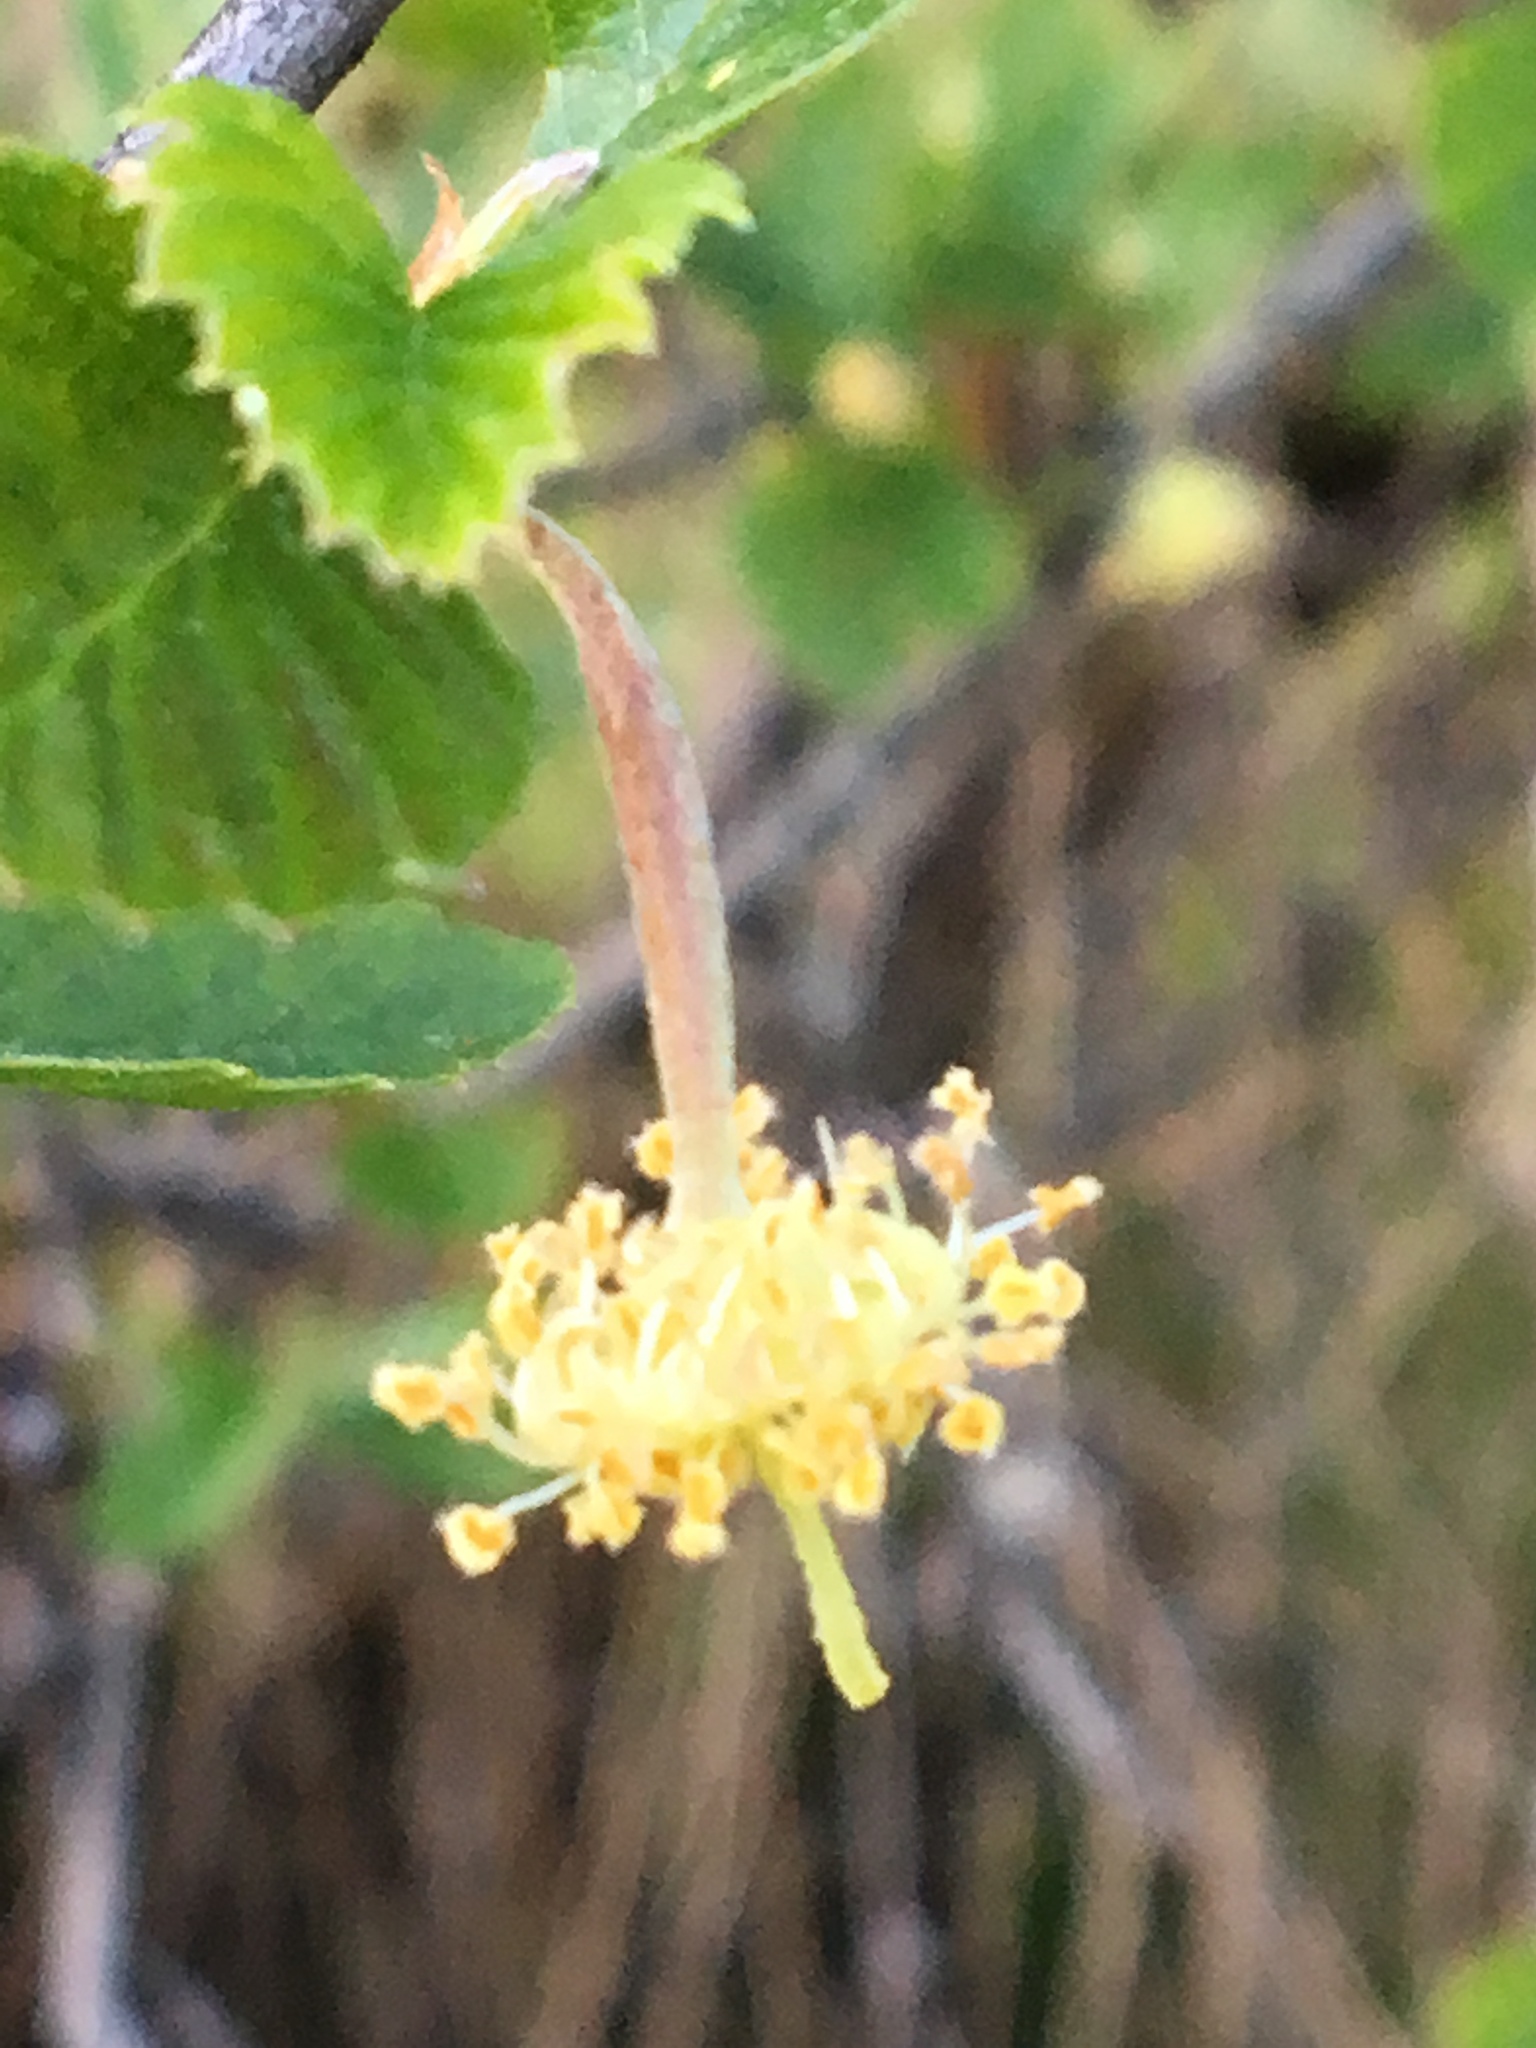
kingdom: Plantae
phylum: Tracheophyta
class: Magnoliopsida
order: Rosales
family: Rosaceae
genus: Cercocarpus
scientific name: Cercocarpus betuloides
